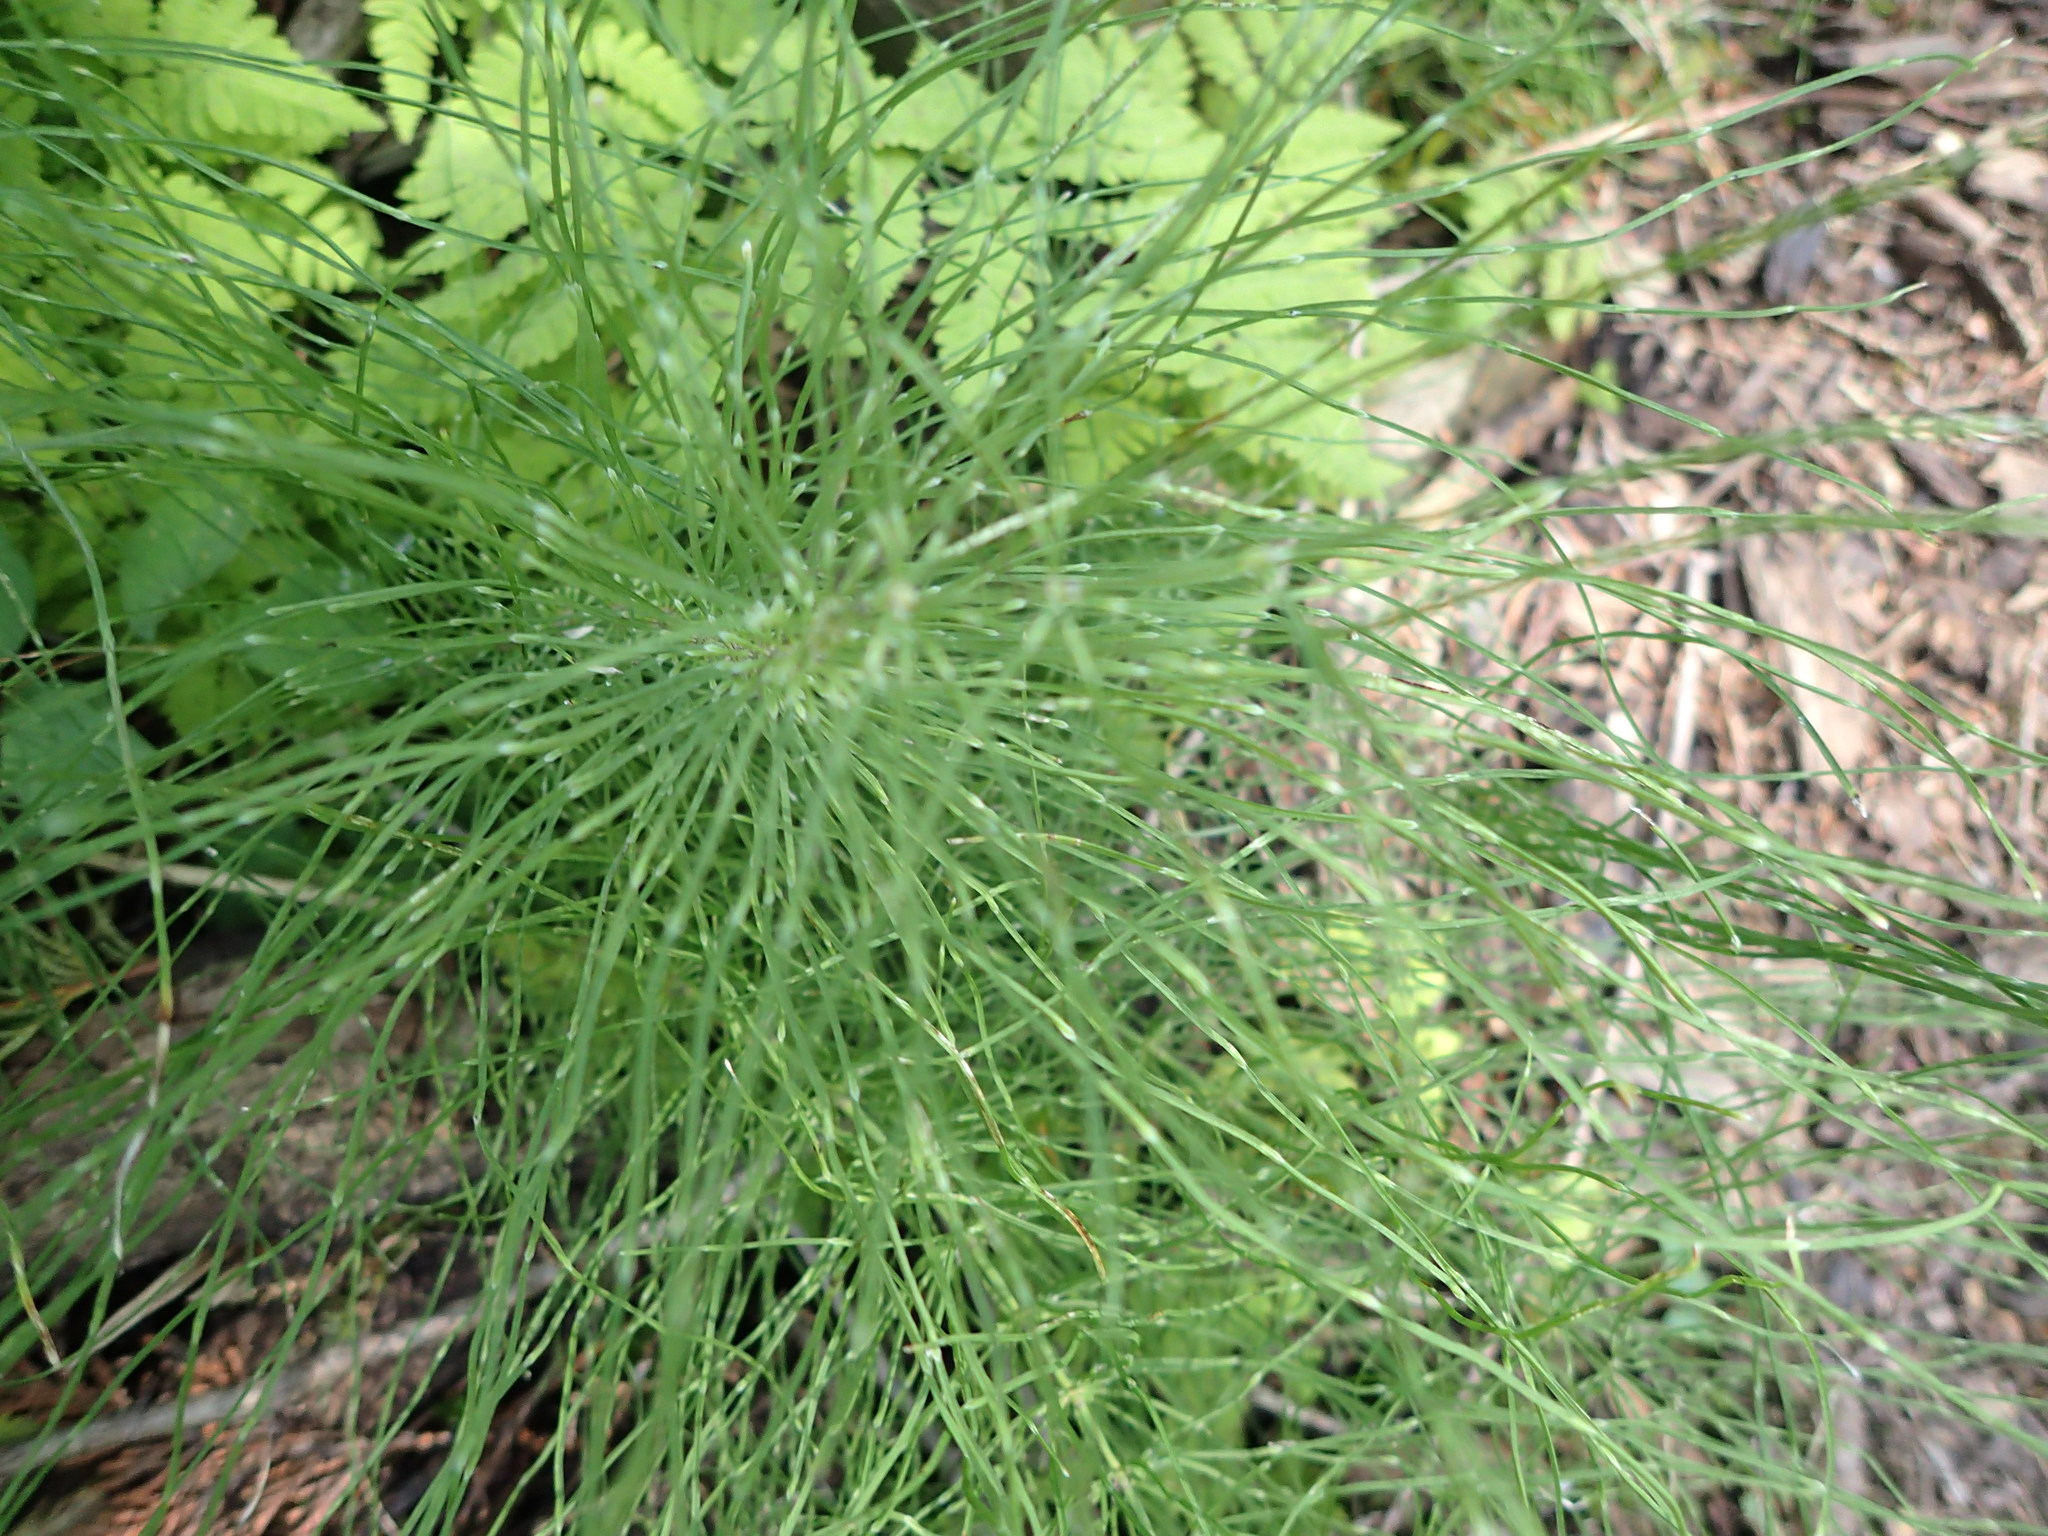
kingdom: Plantae
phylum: Tracheophyta
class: Polypodiopsida
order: Equisetales
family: Equisetaceae
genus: Equisetum
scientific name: Equisetum pratense
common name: Meadow horsetail
